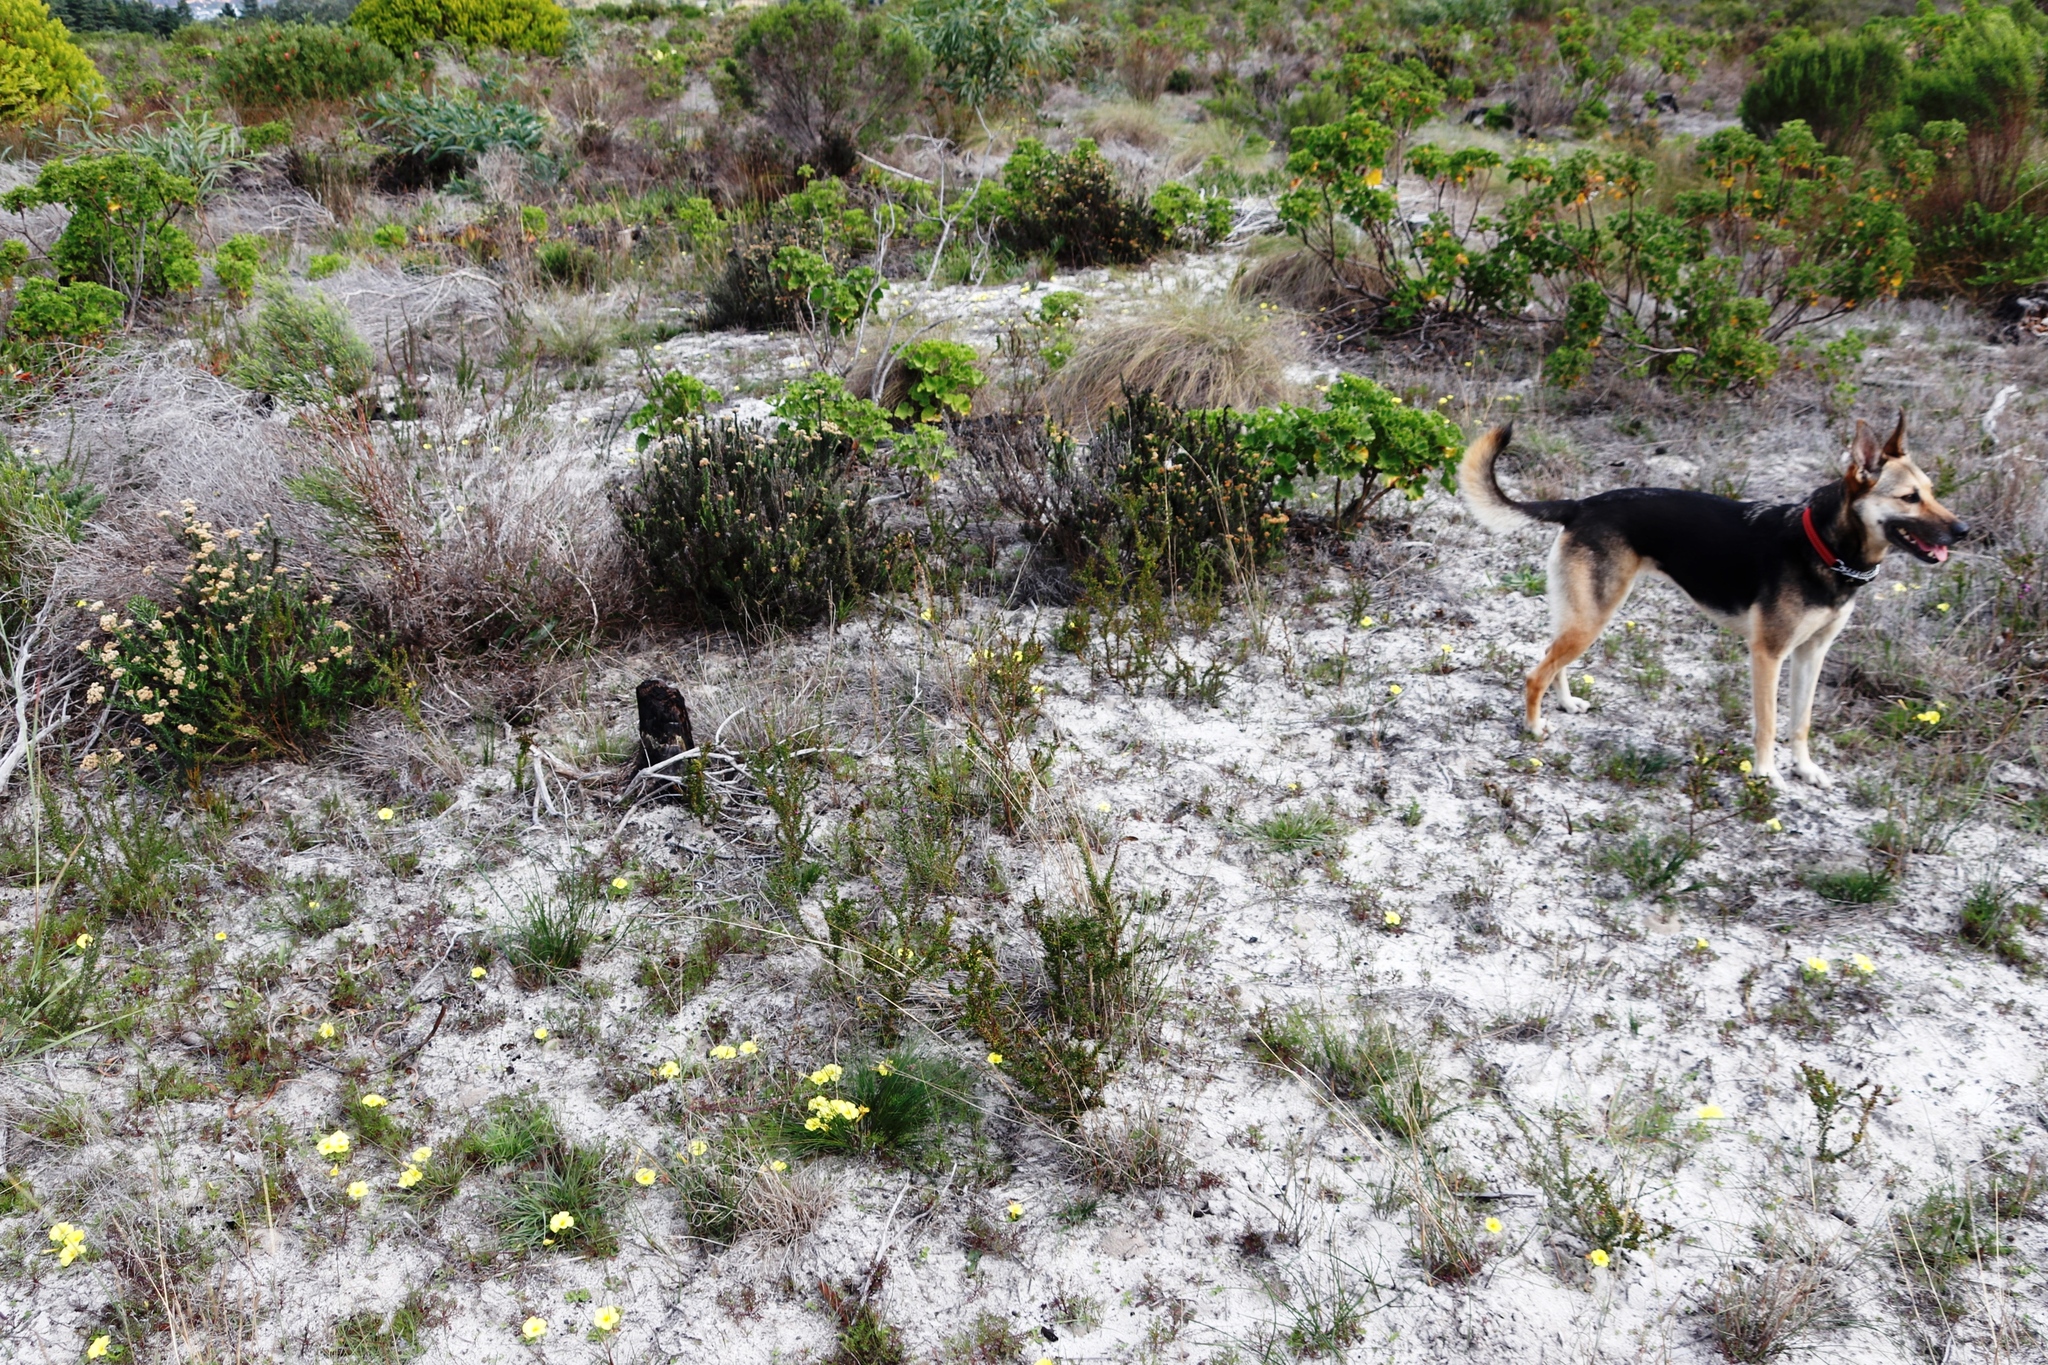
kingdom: Plantae
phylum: Tracheophyta
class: Magnoliopsida
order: Oxalidales
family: Oxalidaceae
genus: Oxalis
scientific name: Oxalis luteola
